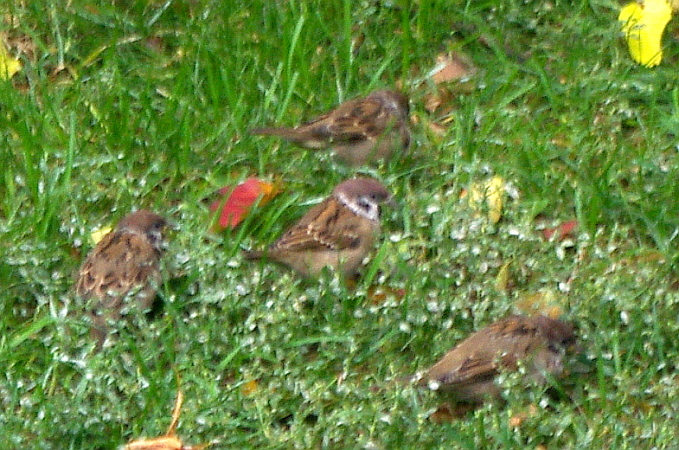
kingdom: Animalia
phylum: Chordata
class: Aves
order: Passeriformes
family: Passeridae
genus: Passer
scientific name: Passer montanus
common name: Eurasian tree sparrow
